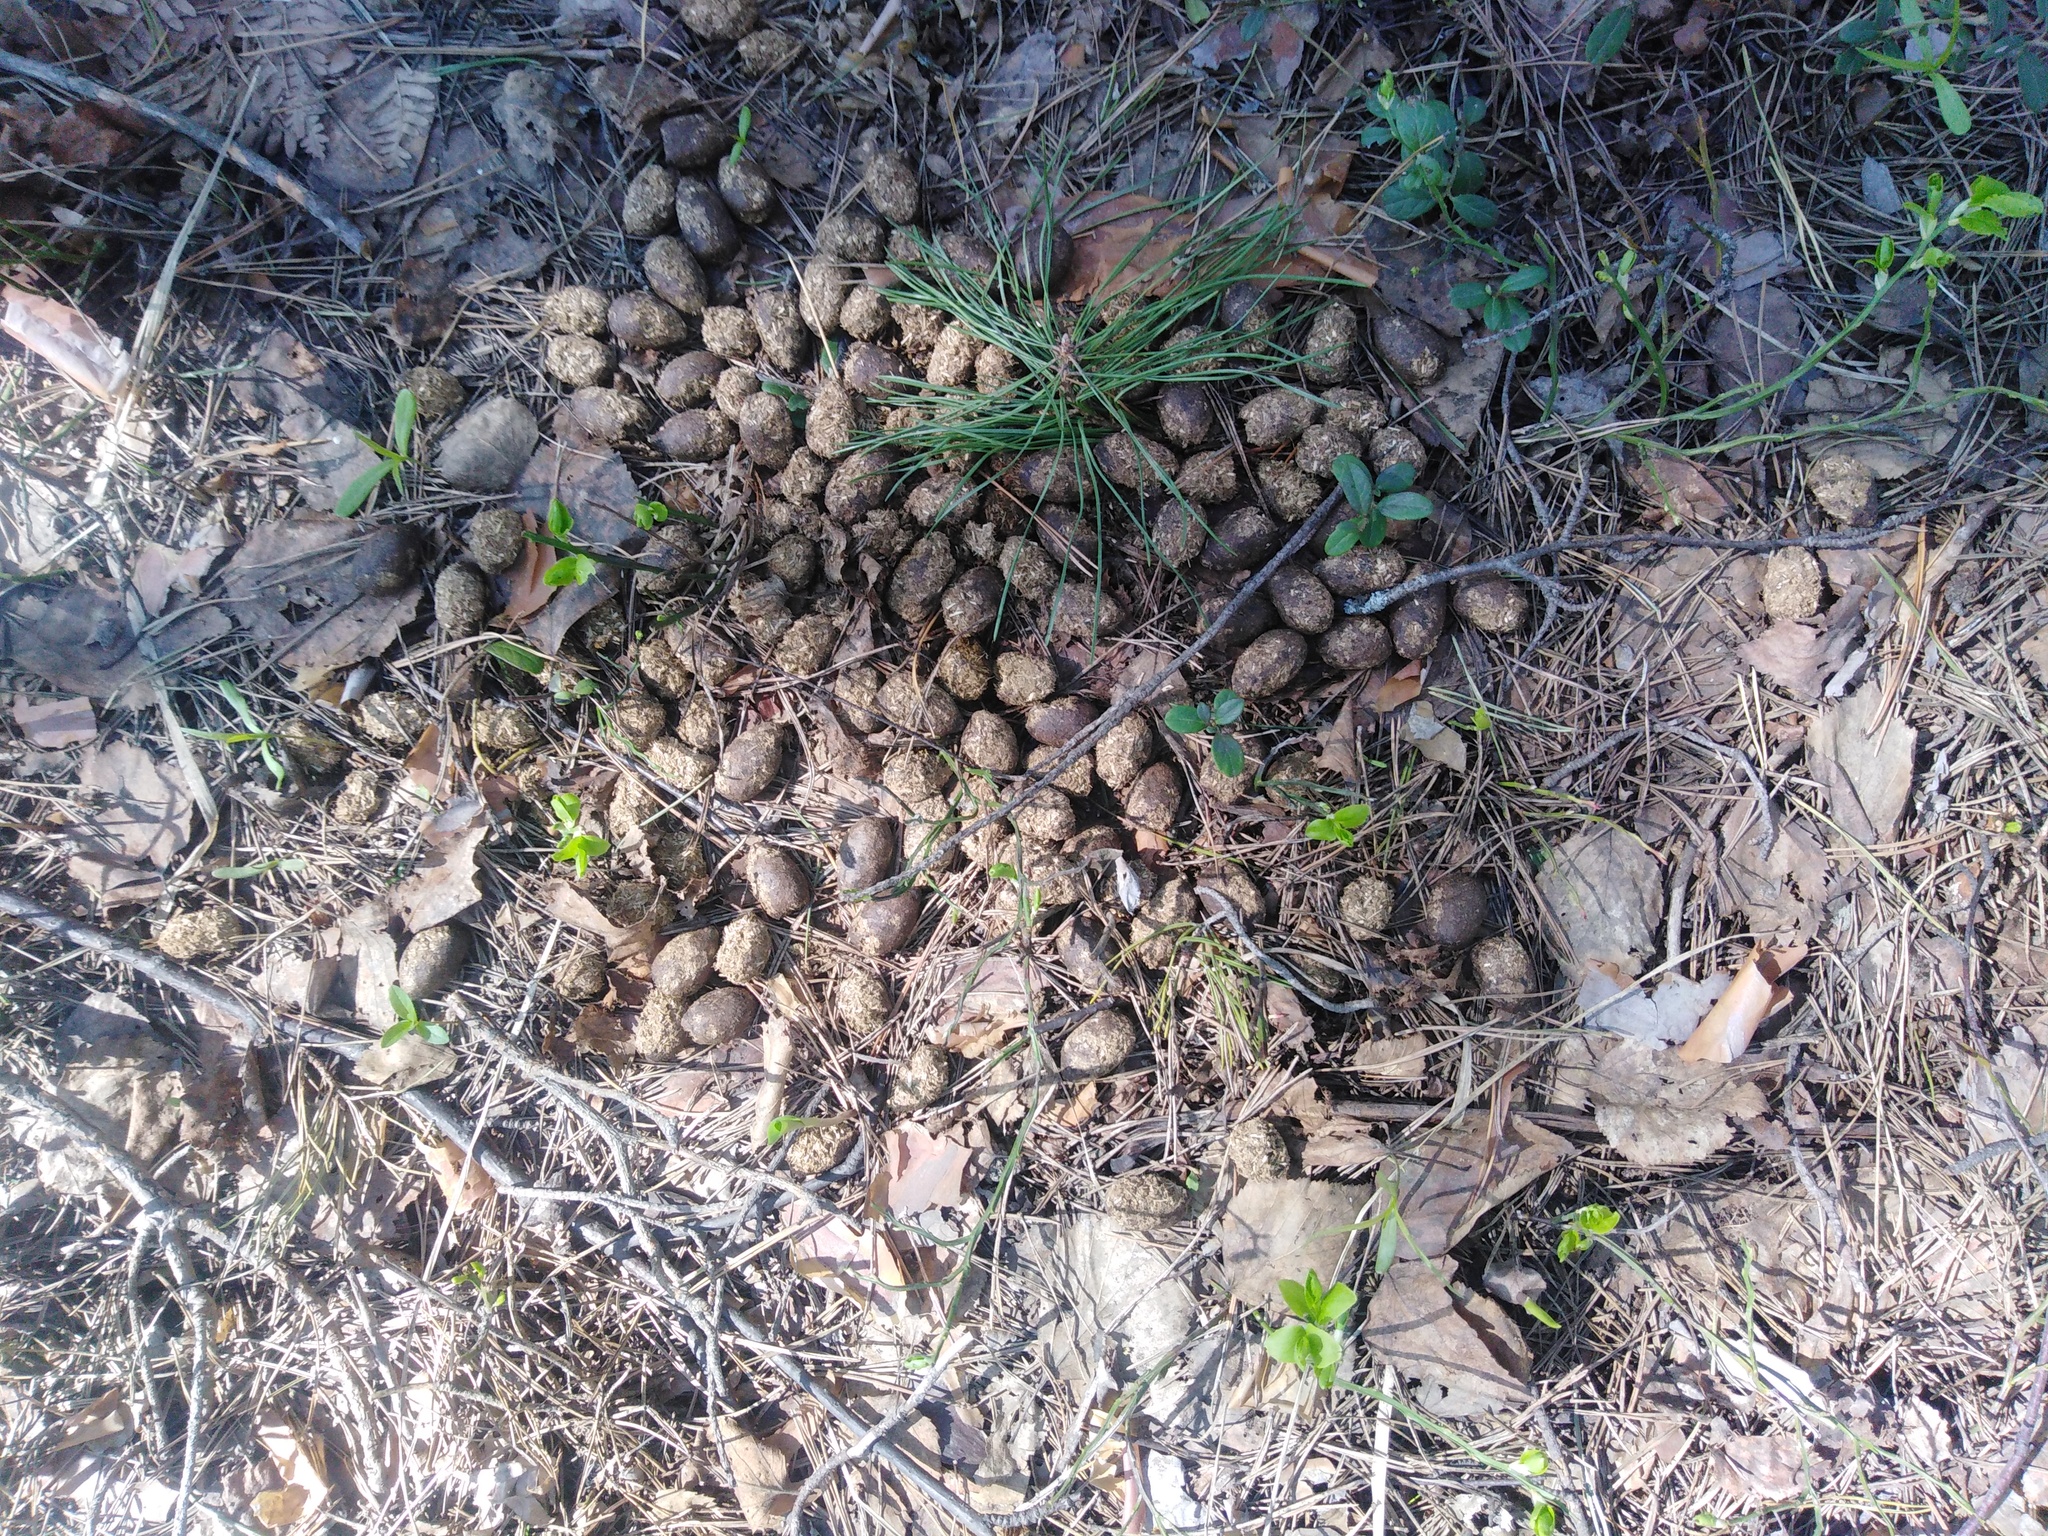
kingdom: Animalia
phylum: Chordata
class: Mammalia
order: Artiodactyla
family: Cervidae
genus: Alces
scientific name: Alces alces
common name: Moose
